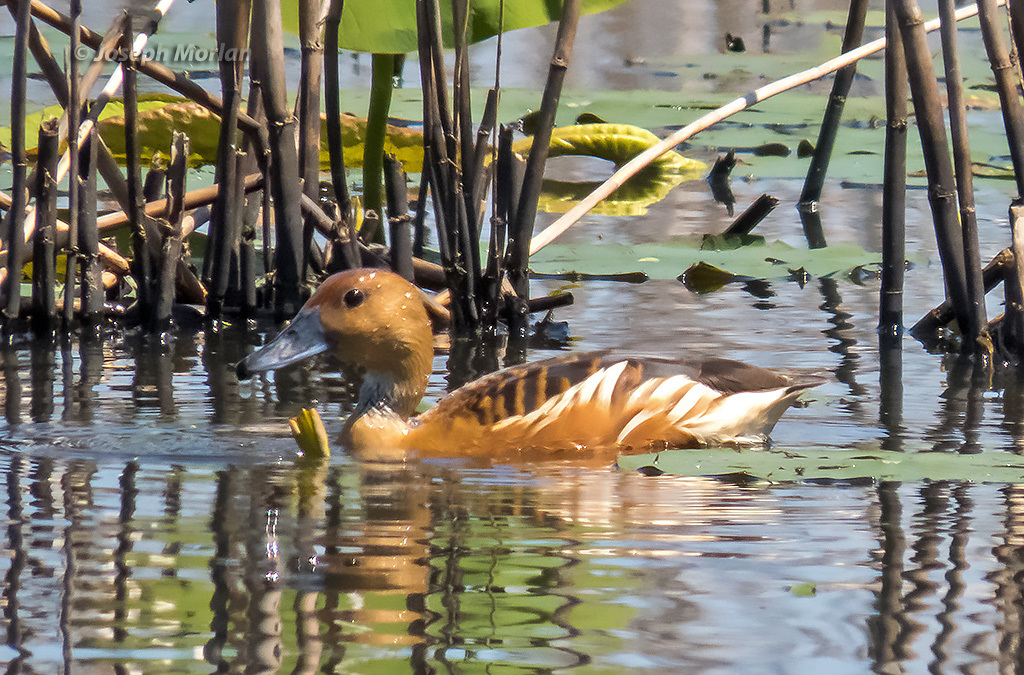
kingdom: Animalia
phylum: Chordata
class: Aves
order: Anseriformes
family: Anatidae
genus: Dendrocygna
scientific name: Dendrocygna bicolor
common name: Fulvous whistling duck
